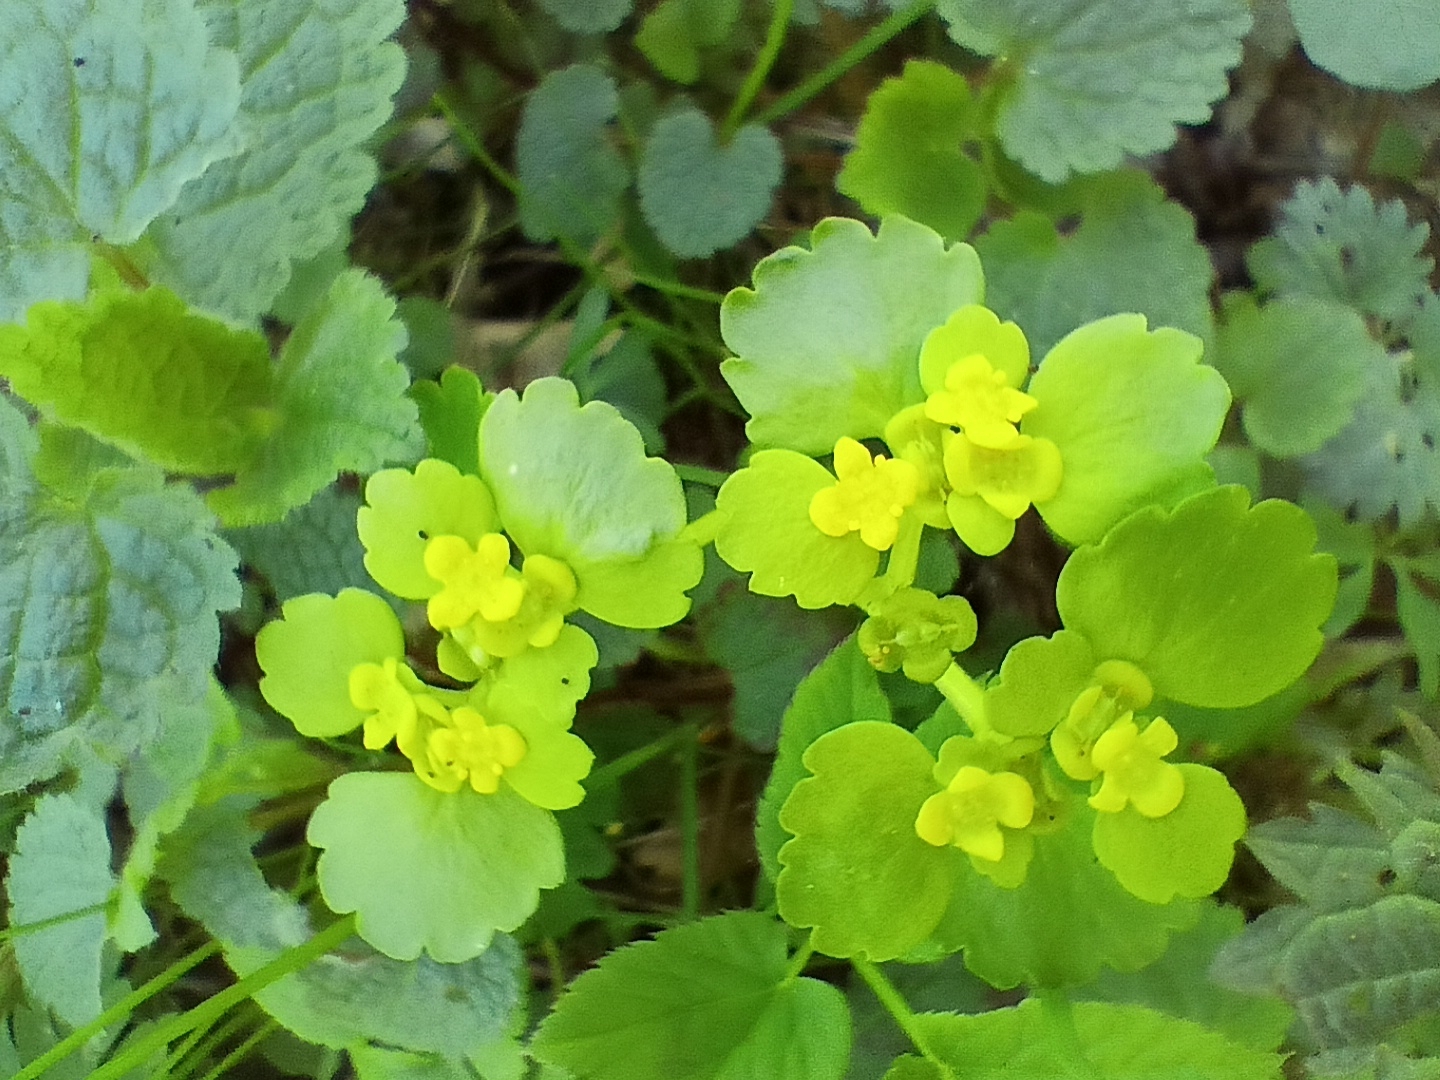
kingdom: Plantae
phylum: Tracheophyta
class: Magnoliopsida
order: Saxifragales
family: Saxifragaceae
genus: Chrysosplenium
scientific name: Chrysosplenium alternifolium
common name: Alternate-leaved golden-saxifrage
